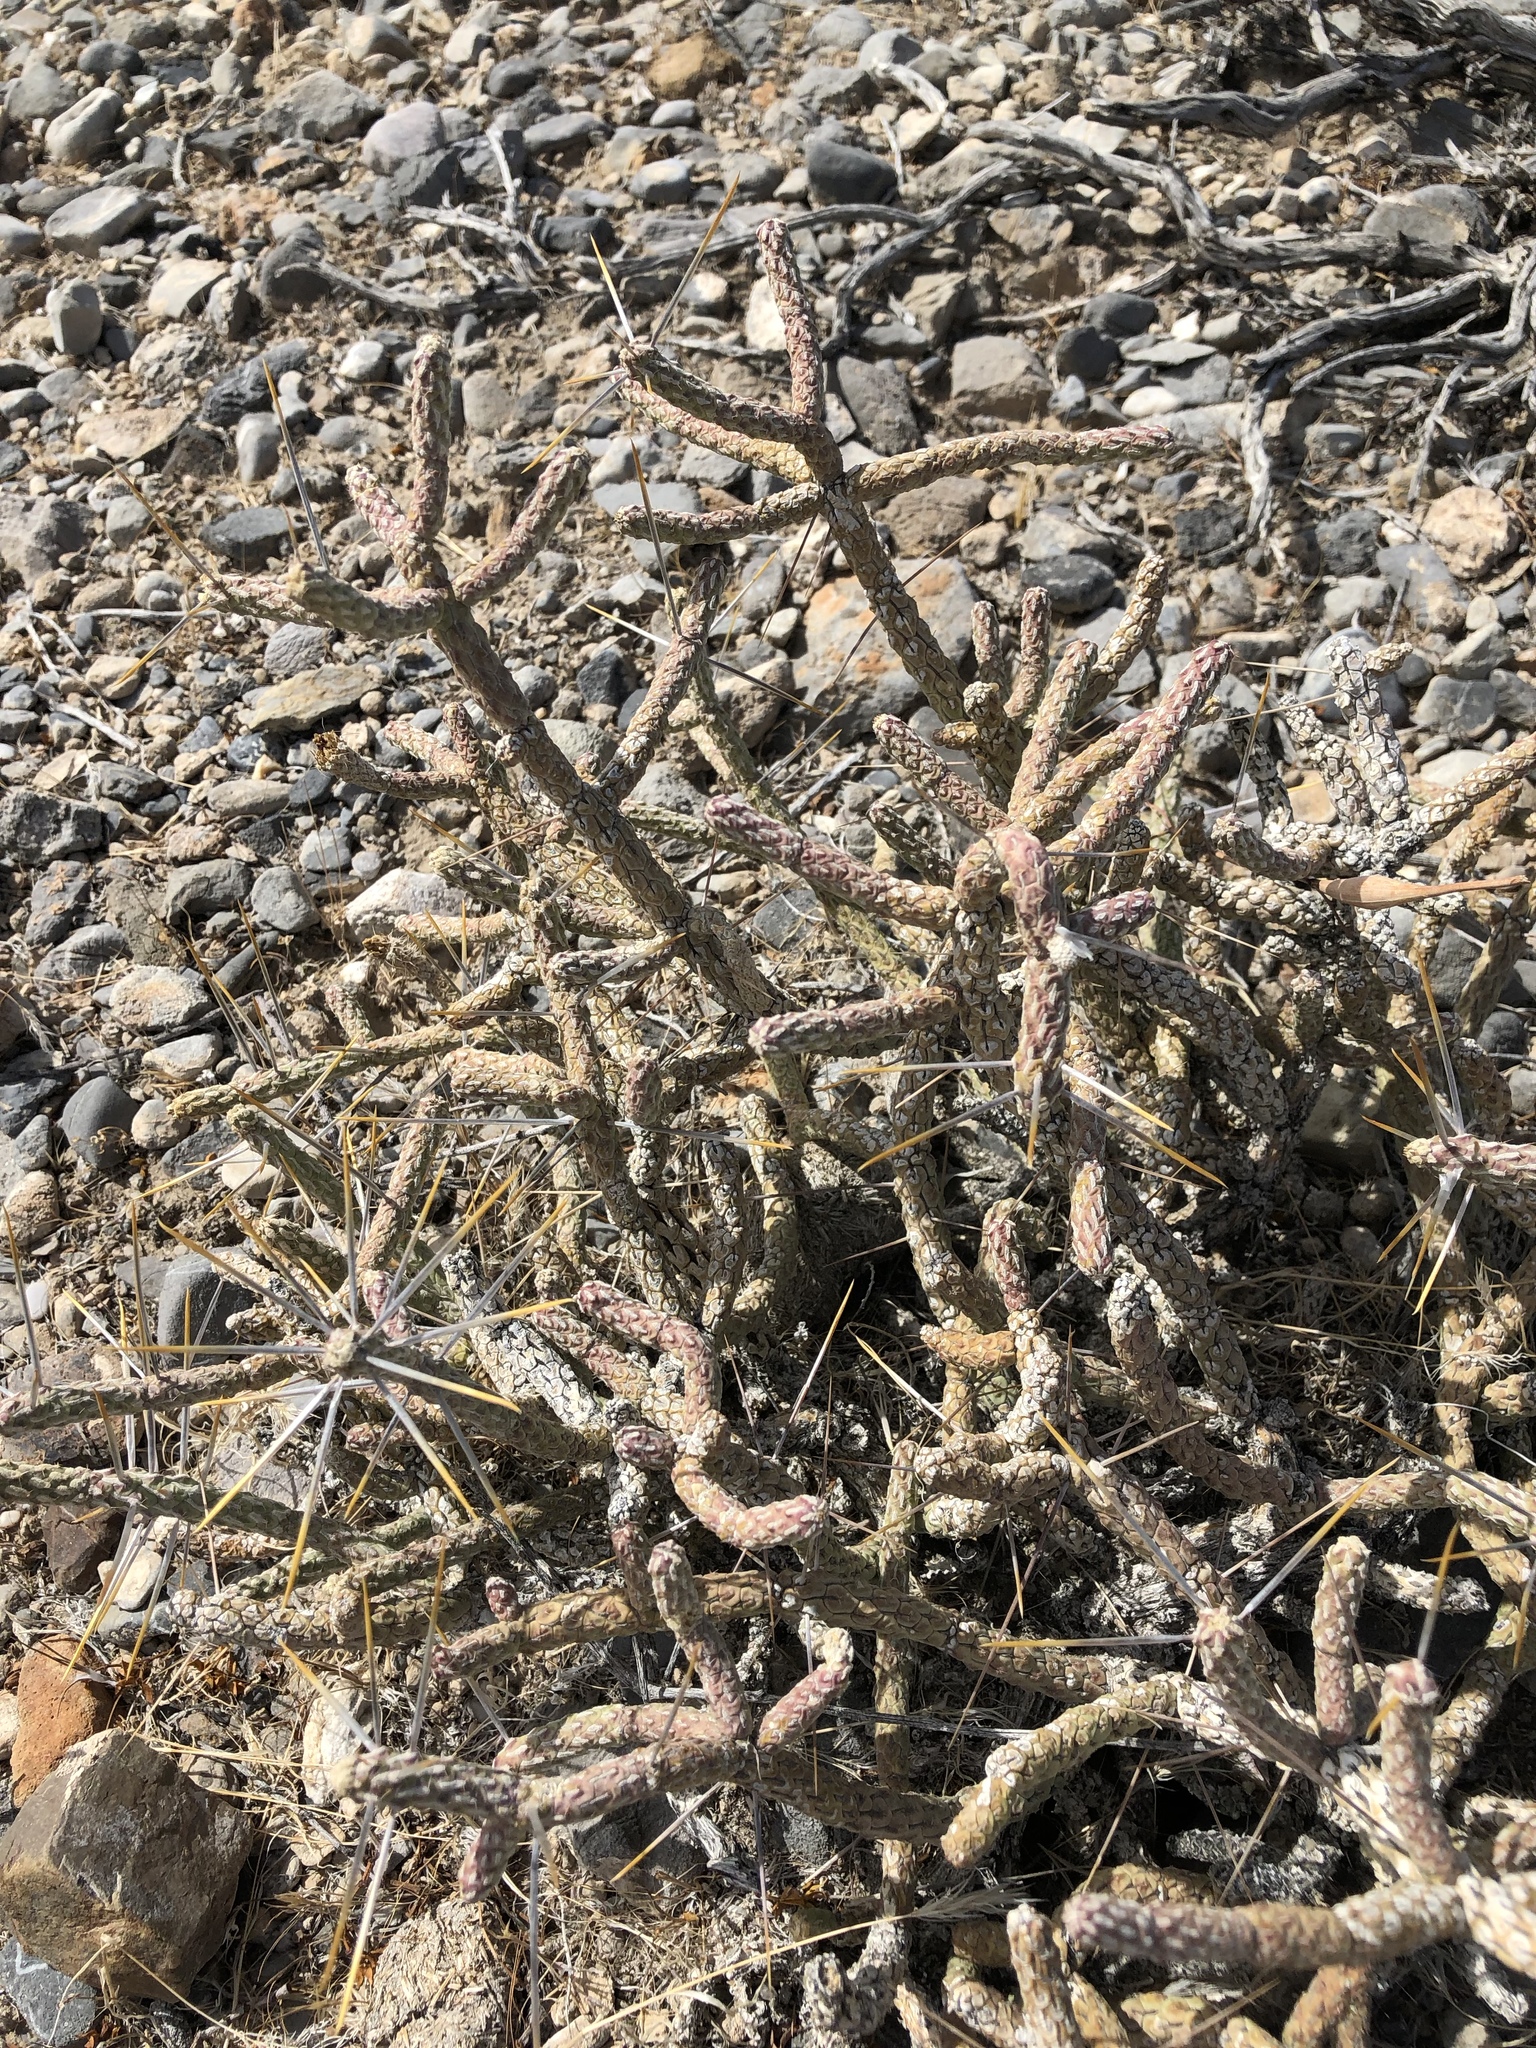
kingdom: Plantae
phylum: Tracheophyta
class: Magnoliopsida
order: Caryophyllales
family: Cactaceae
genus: Cylindropuntia
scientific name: Cylindropuntia ramosissima
